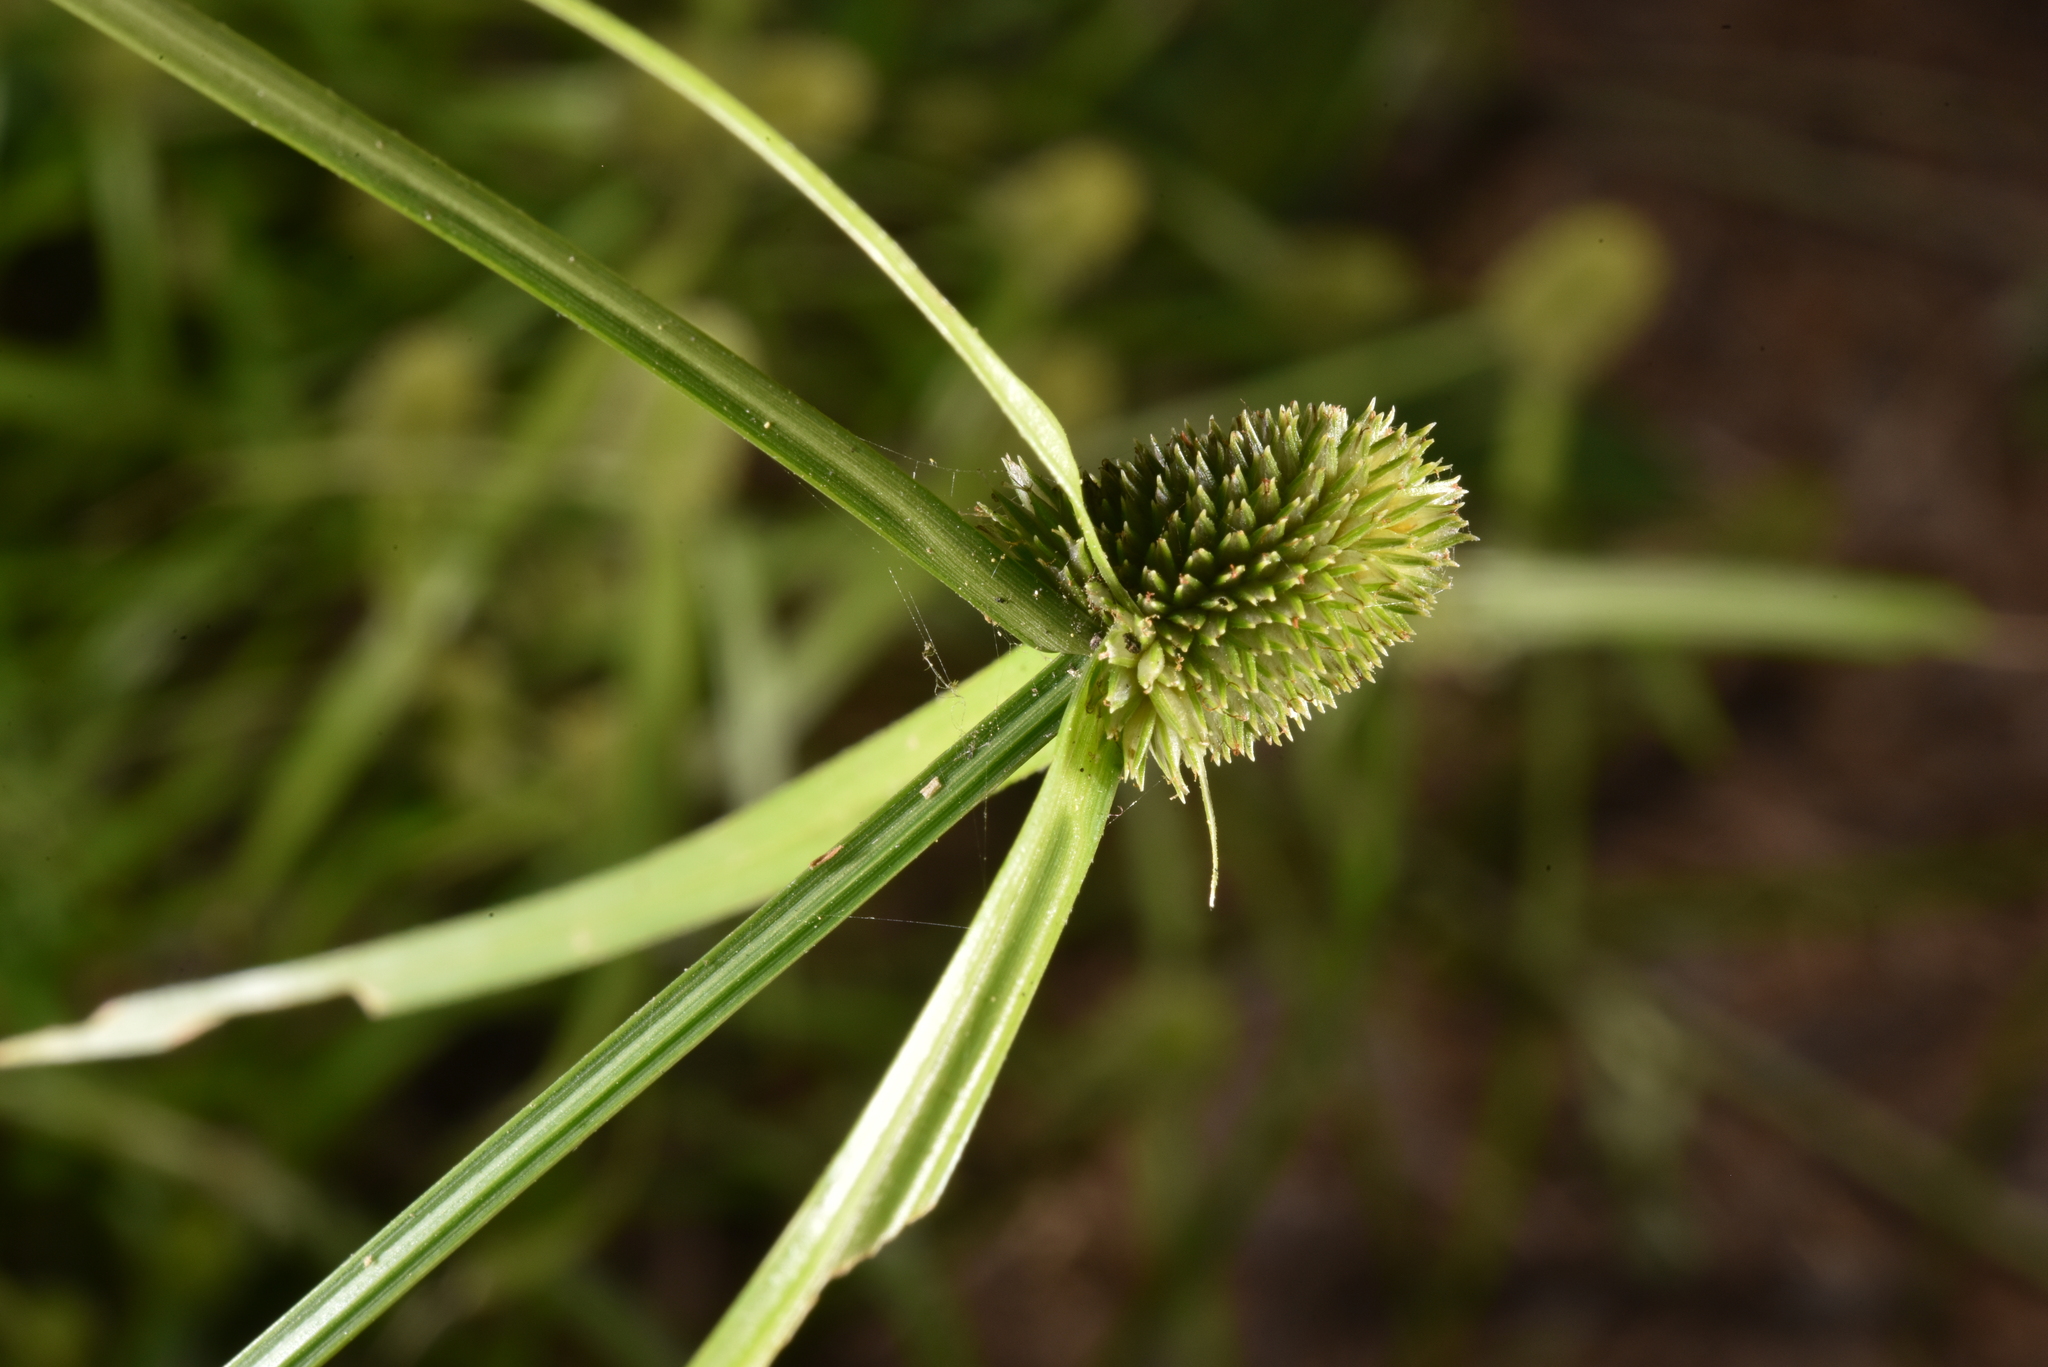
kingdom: Plantae
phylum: Tracheophyta
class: Liliopsida
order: Poales
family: Cyperaceae
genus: Cyperus
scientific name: Cyperus brevifolius
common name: Globe kyllinga
